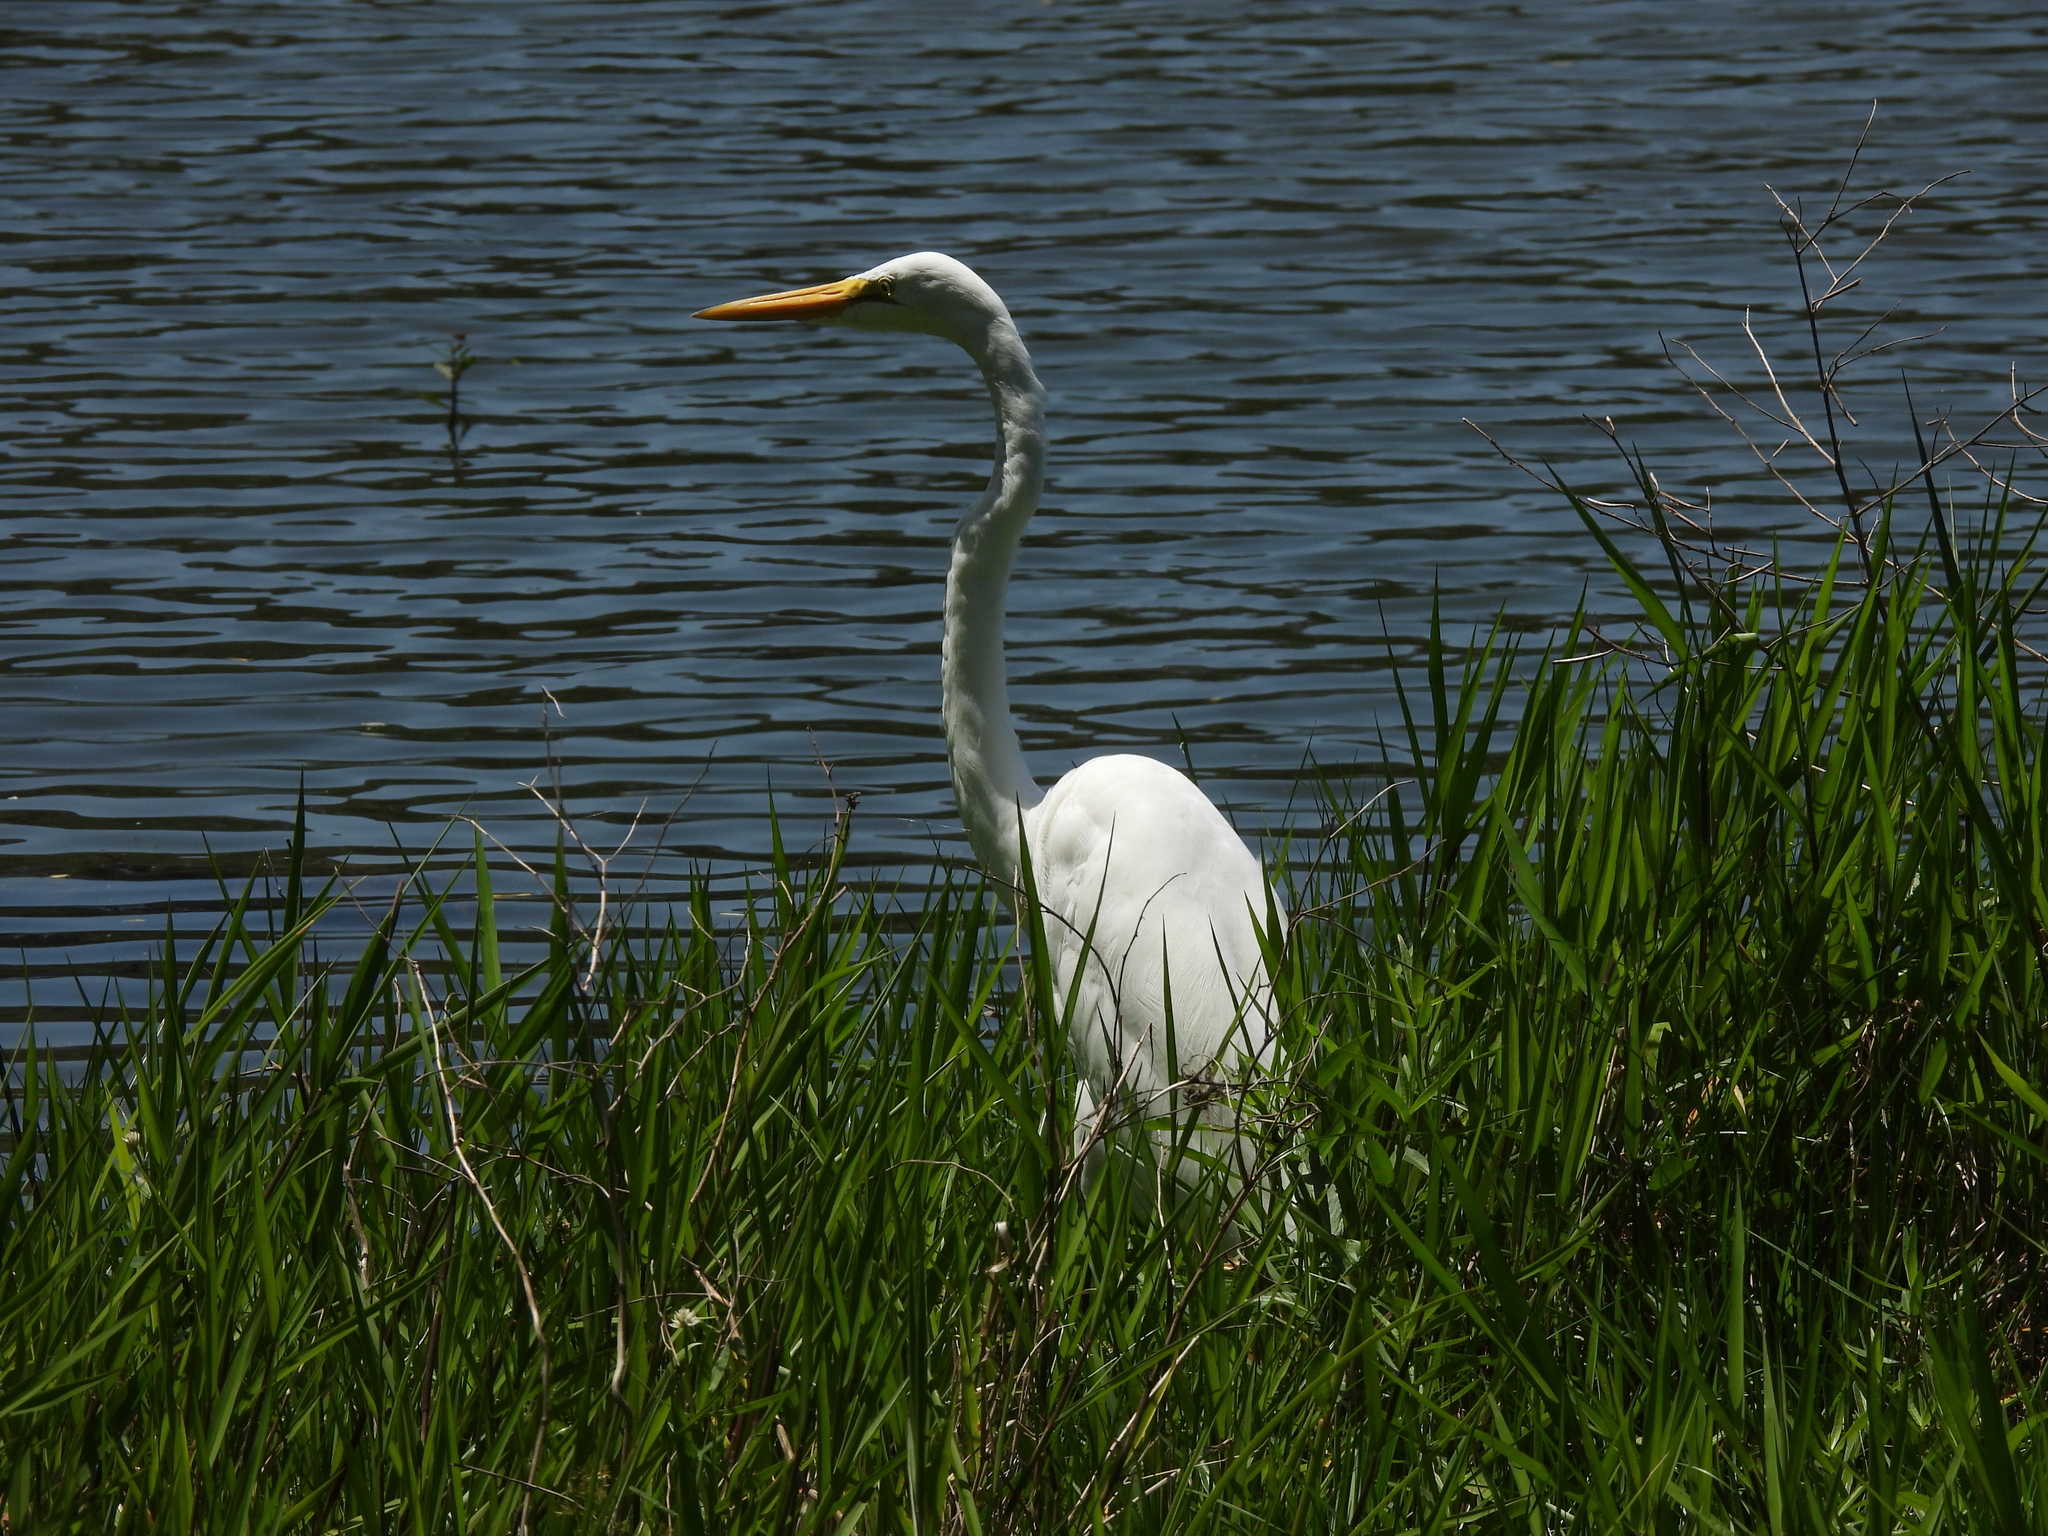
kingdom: Animalia
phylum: Chordata
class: Aves
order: Pelecaniformes
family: Ardeidae
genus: Ardea
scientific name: Ardea alba
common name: Great egret
